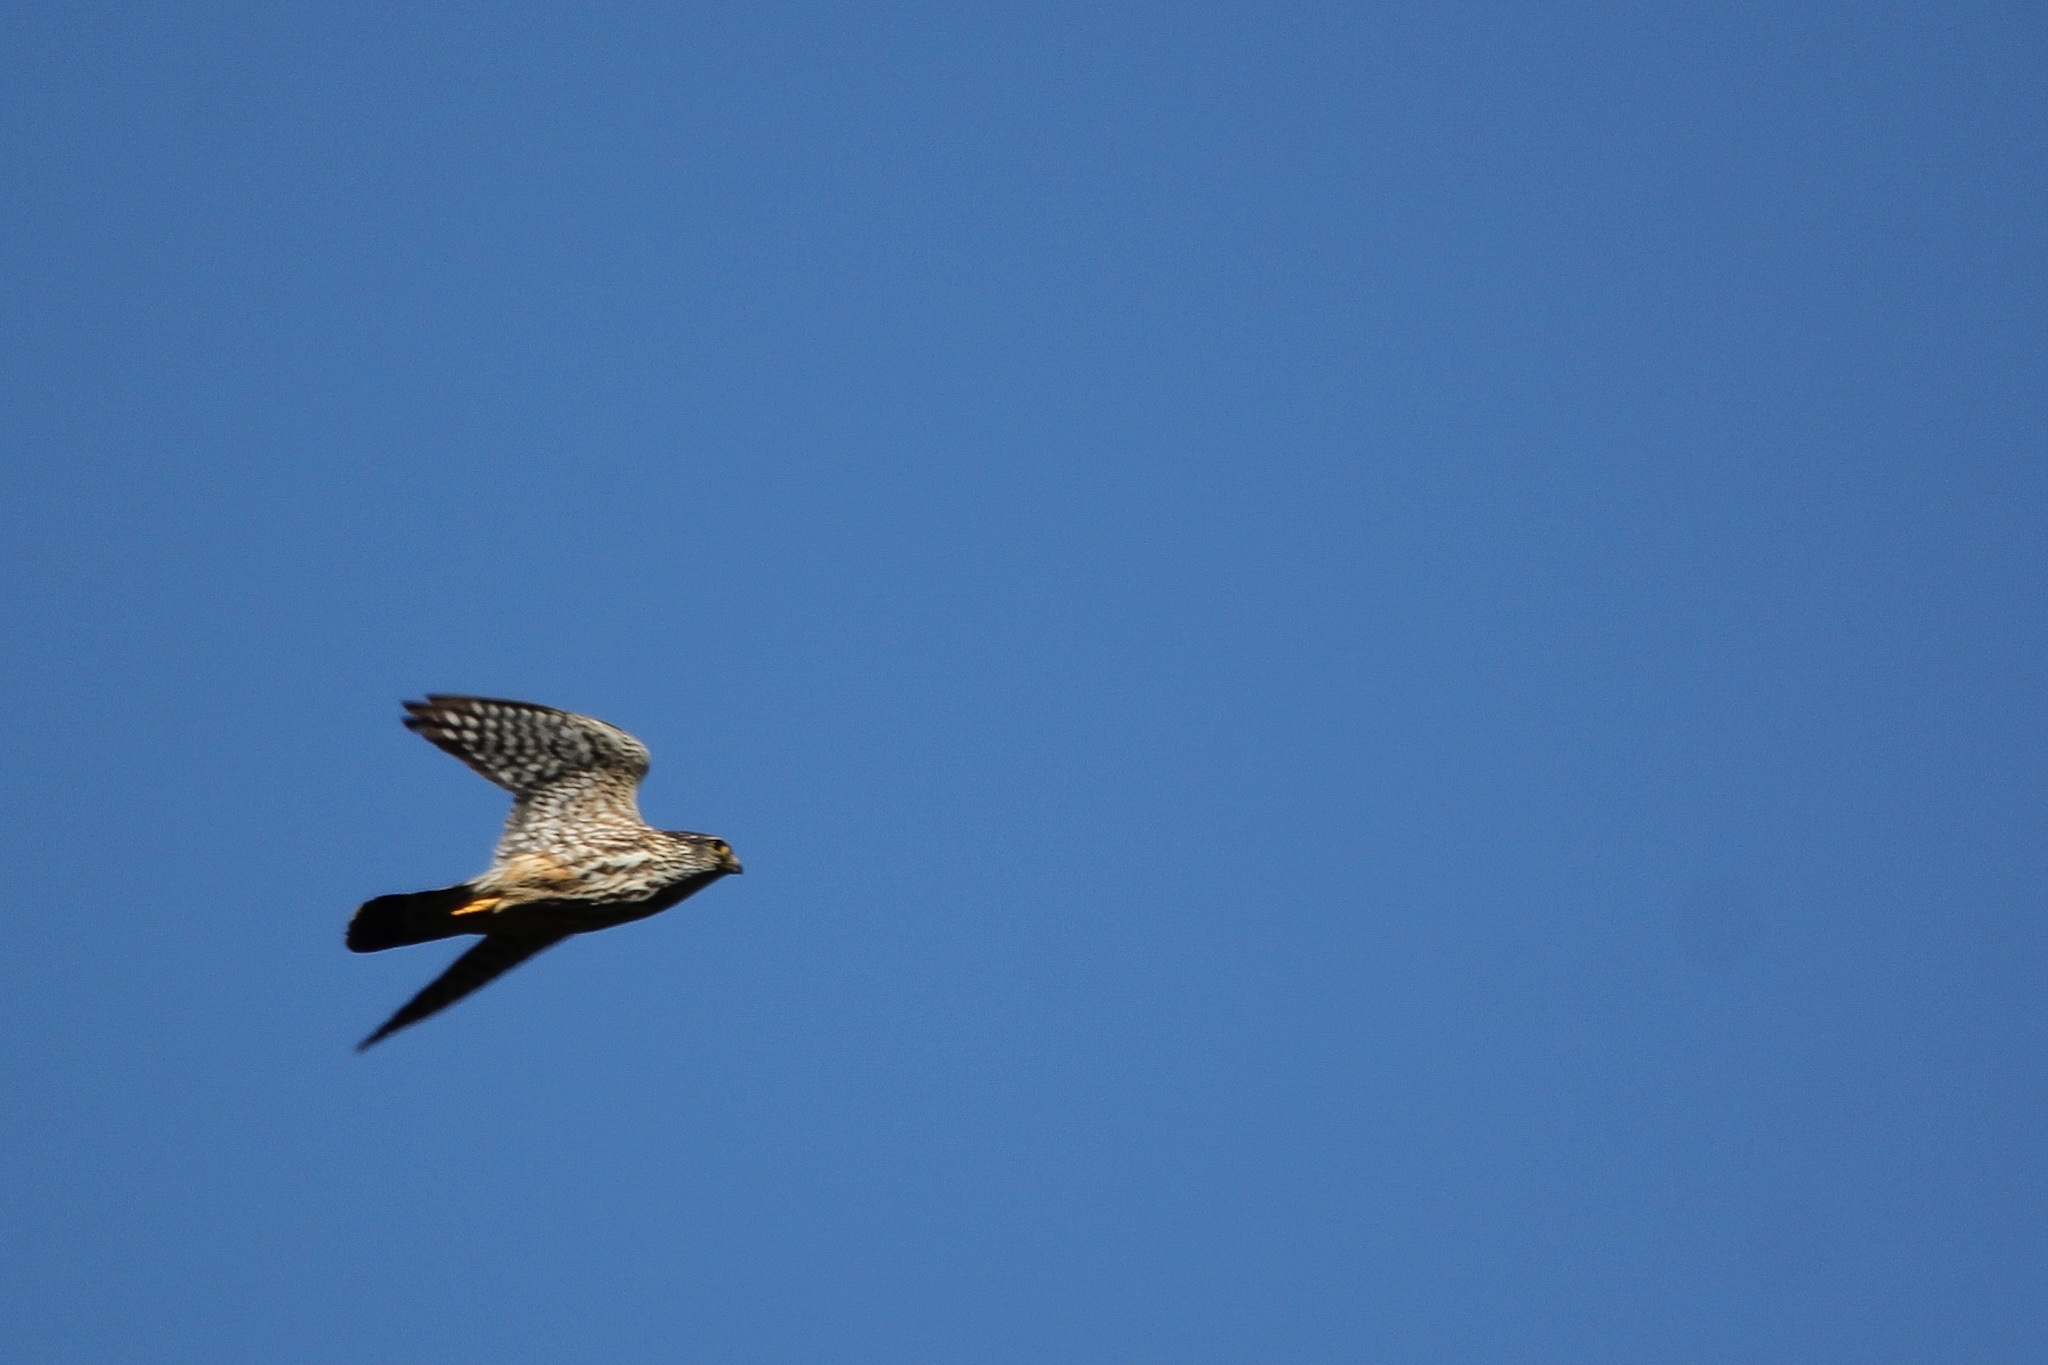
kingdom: Animalia
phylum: Chordata
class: Aves
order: Falconiformes
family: Falconidae
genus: Falco
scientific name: Falco columbarius
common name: Merlin
